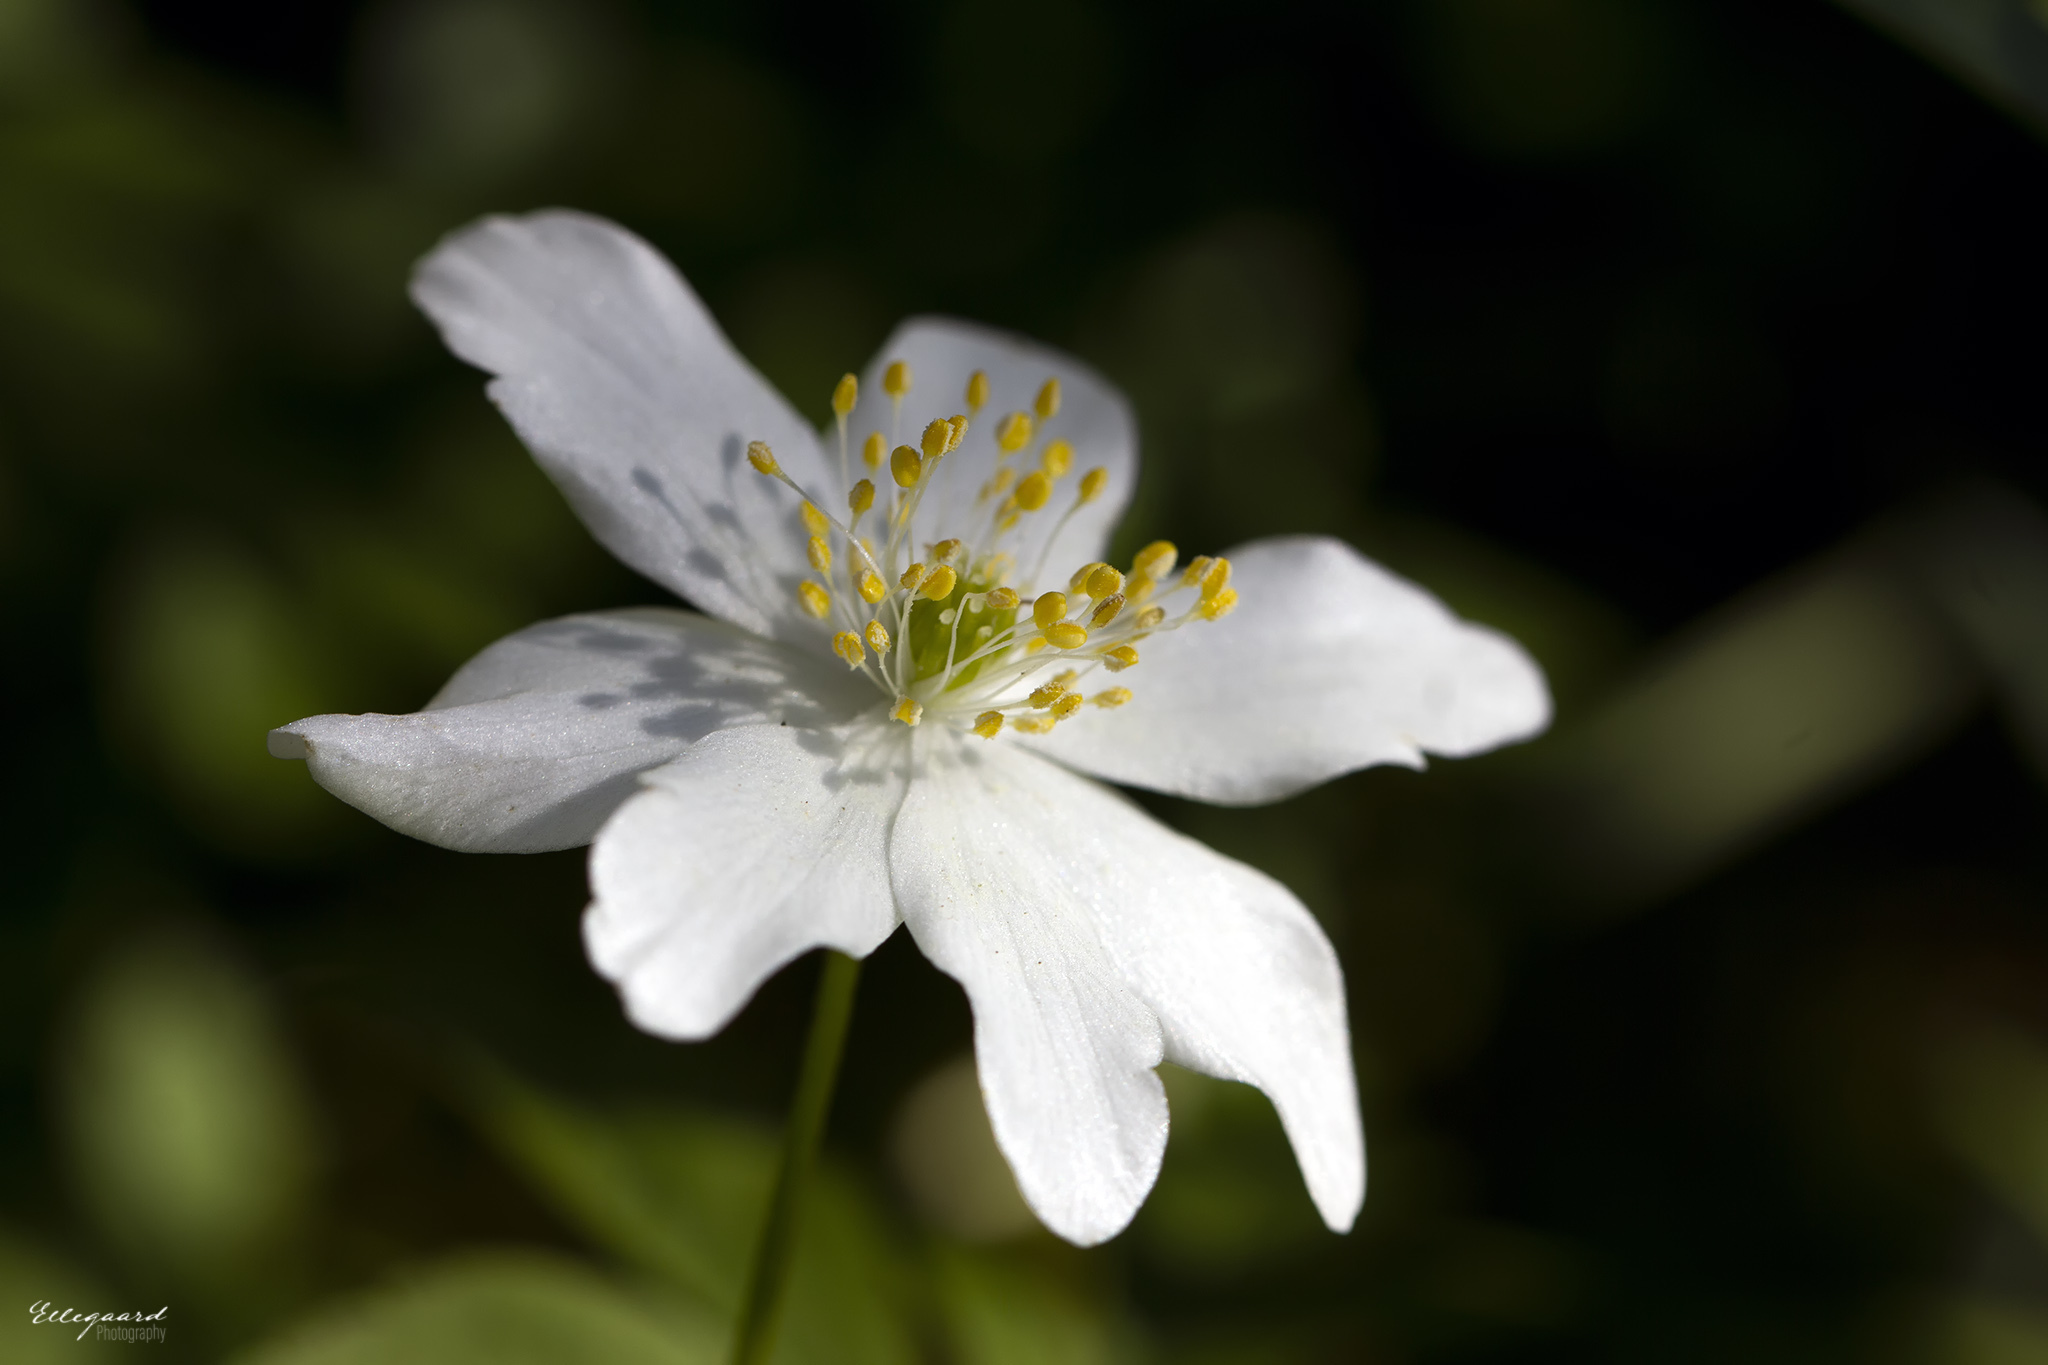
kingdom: Plantae
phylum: Tracheophyta
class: Magnoliopsida
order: Ranunculales
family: Ranunculaceae
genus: Anemone
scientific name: Anemone nemorosa
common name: Wood anemone
